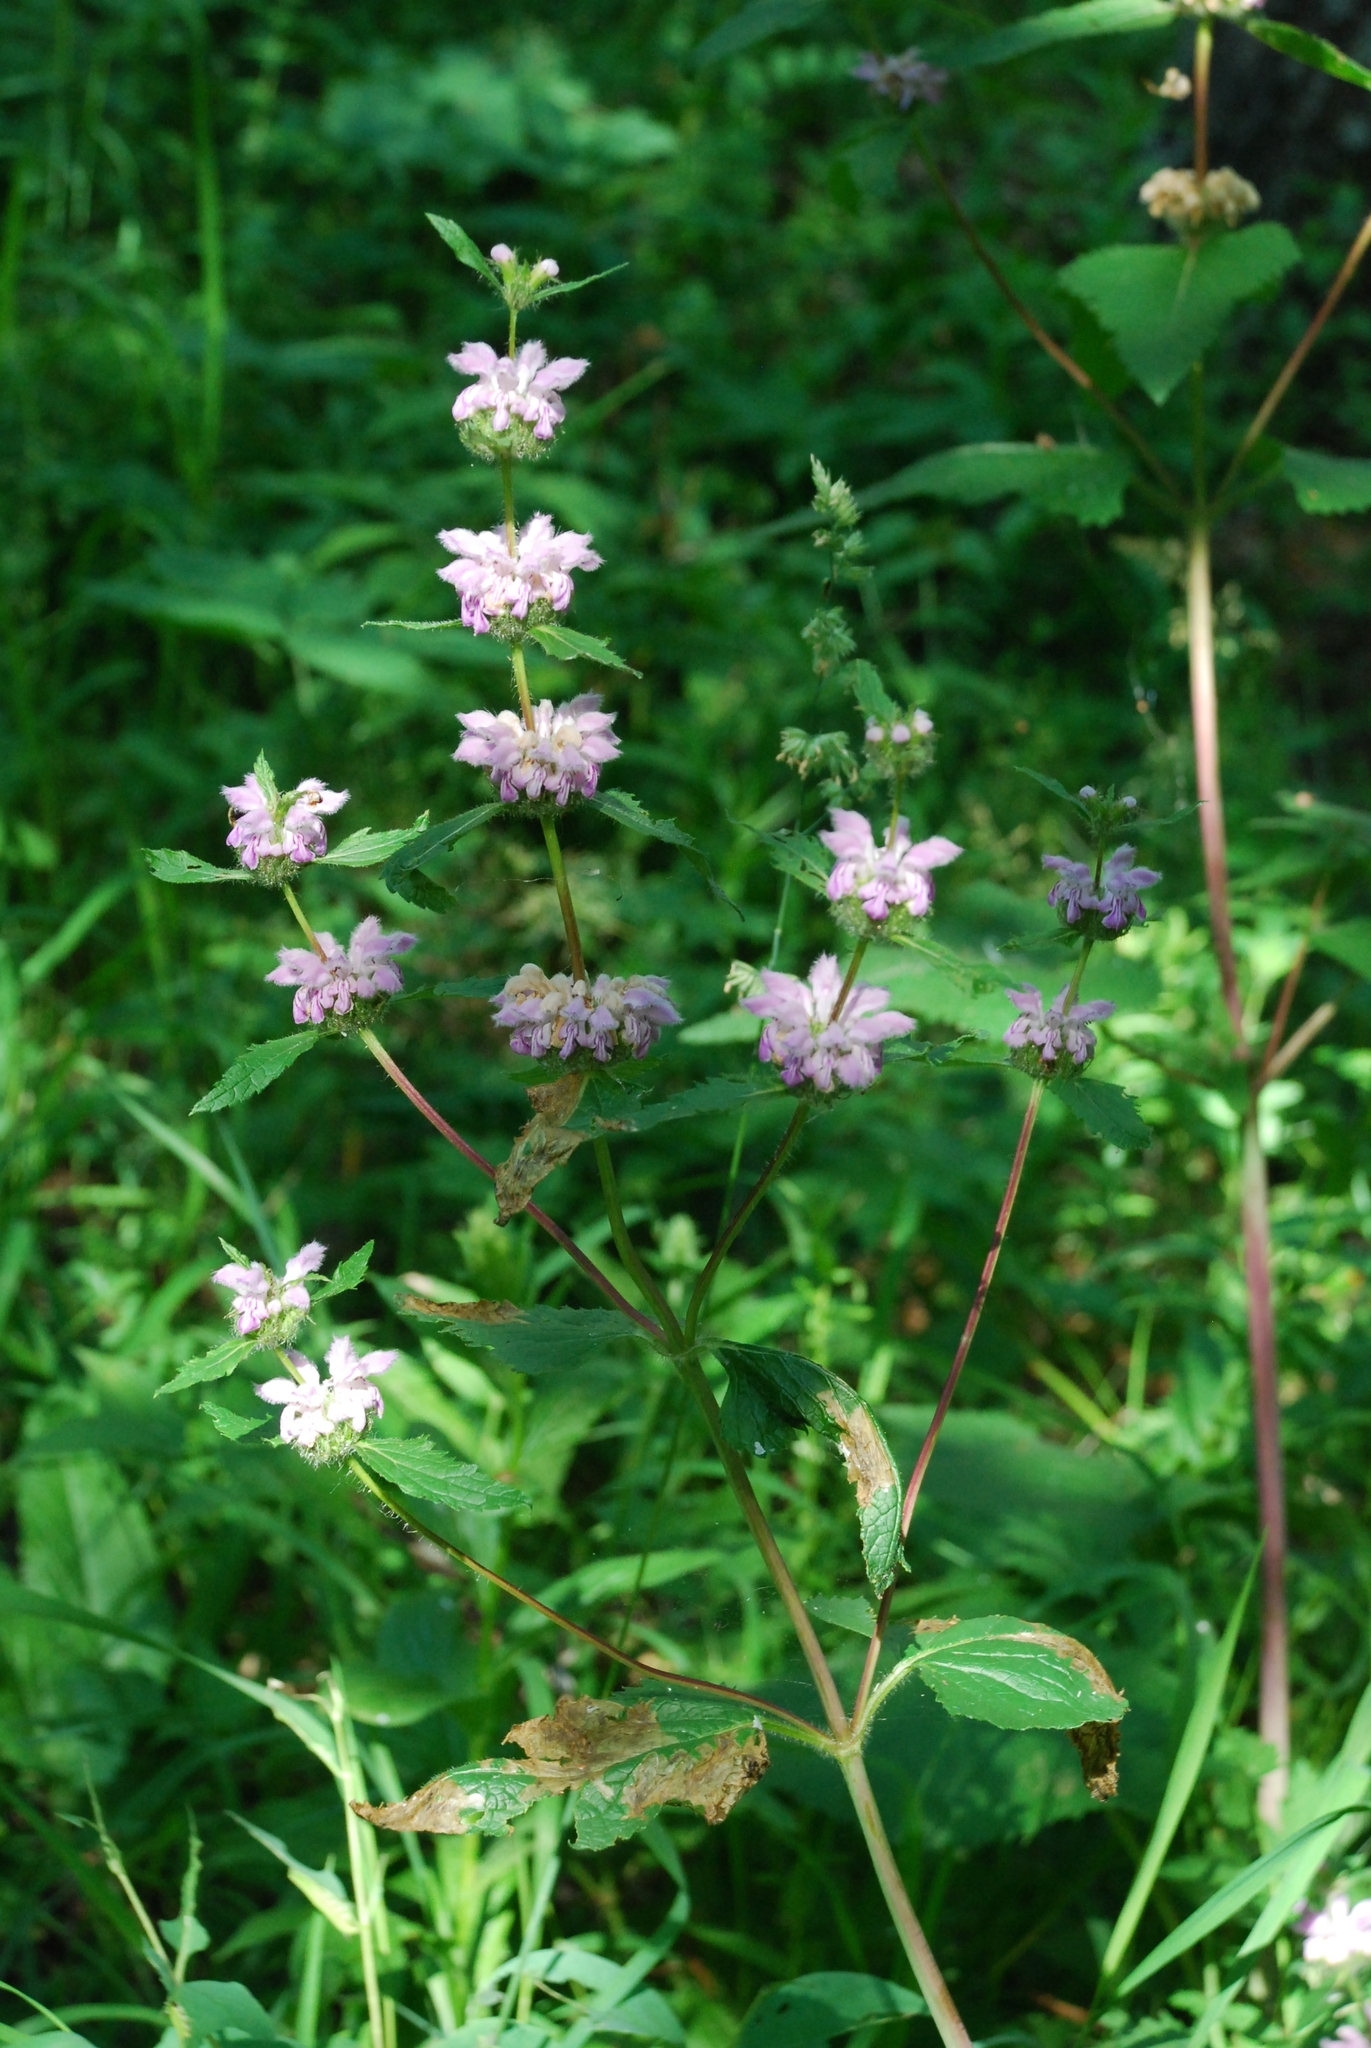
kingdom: Plantae
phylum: Tracheophyta
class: Magnoliopsida
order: Lamiales
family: Lamiaceae
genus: Phlomoides
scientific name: Phlomoides tuberosa
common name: Tuberous jerusalem sage
